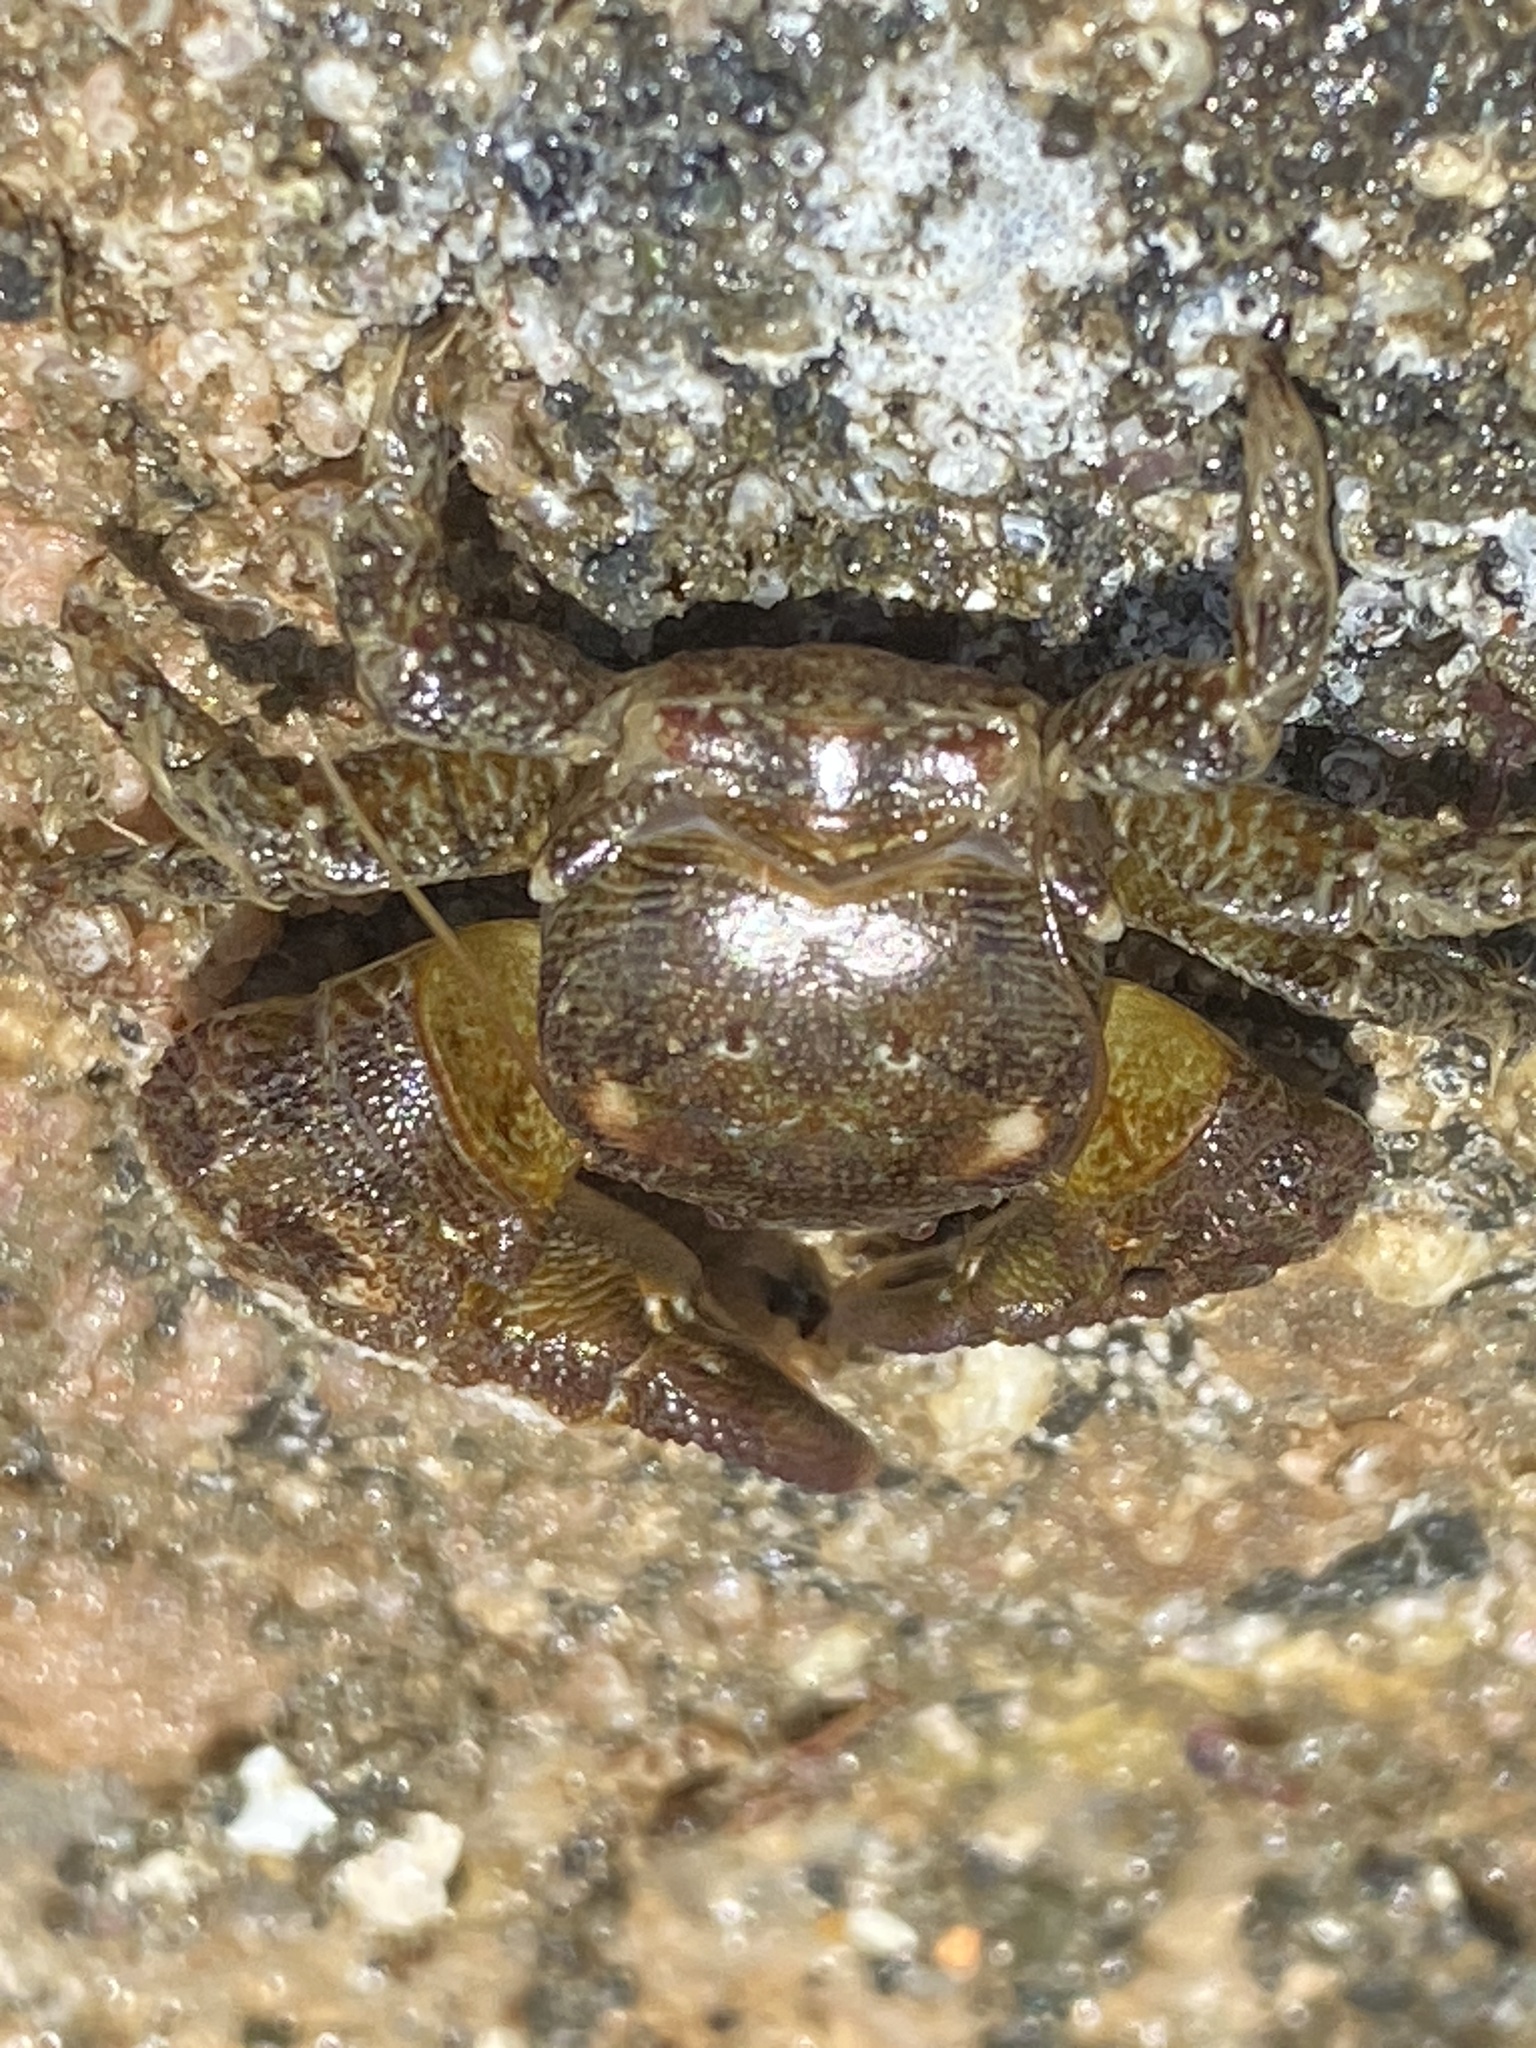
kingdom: Animalia
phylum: Arthropoda
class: Malacostraca
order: Decapoda
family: Porcellanidae
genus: Pachycheles
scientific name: Pachycheles rudis
